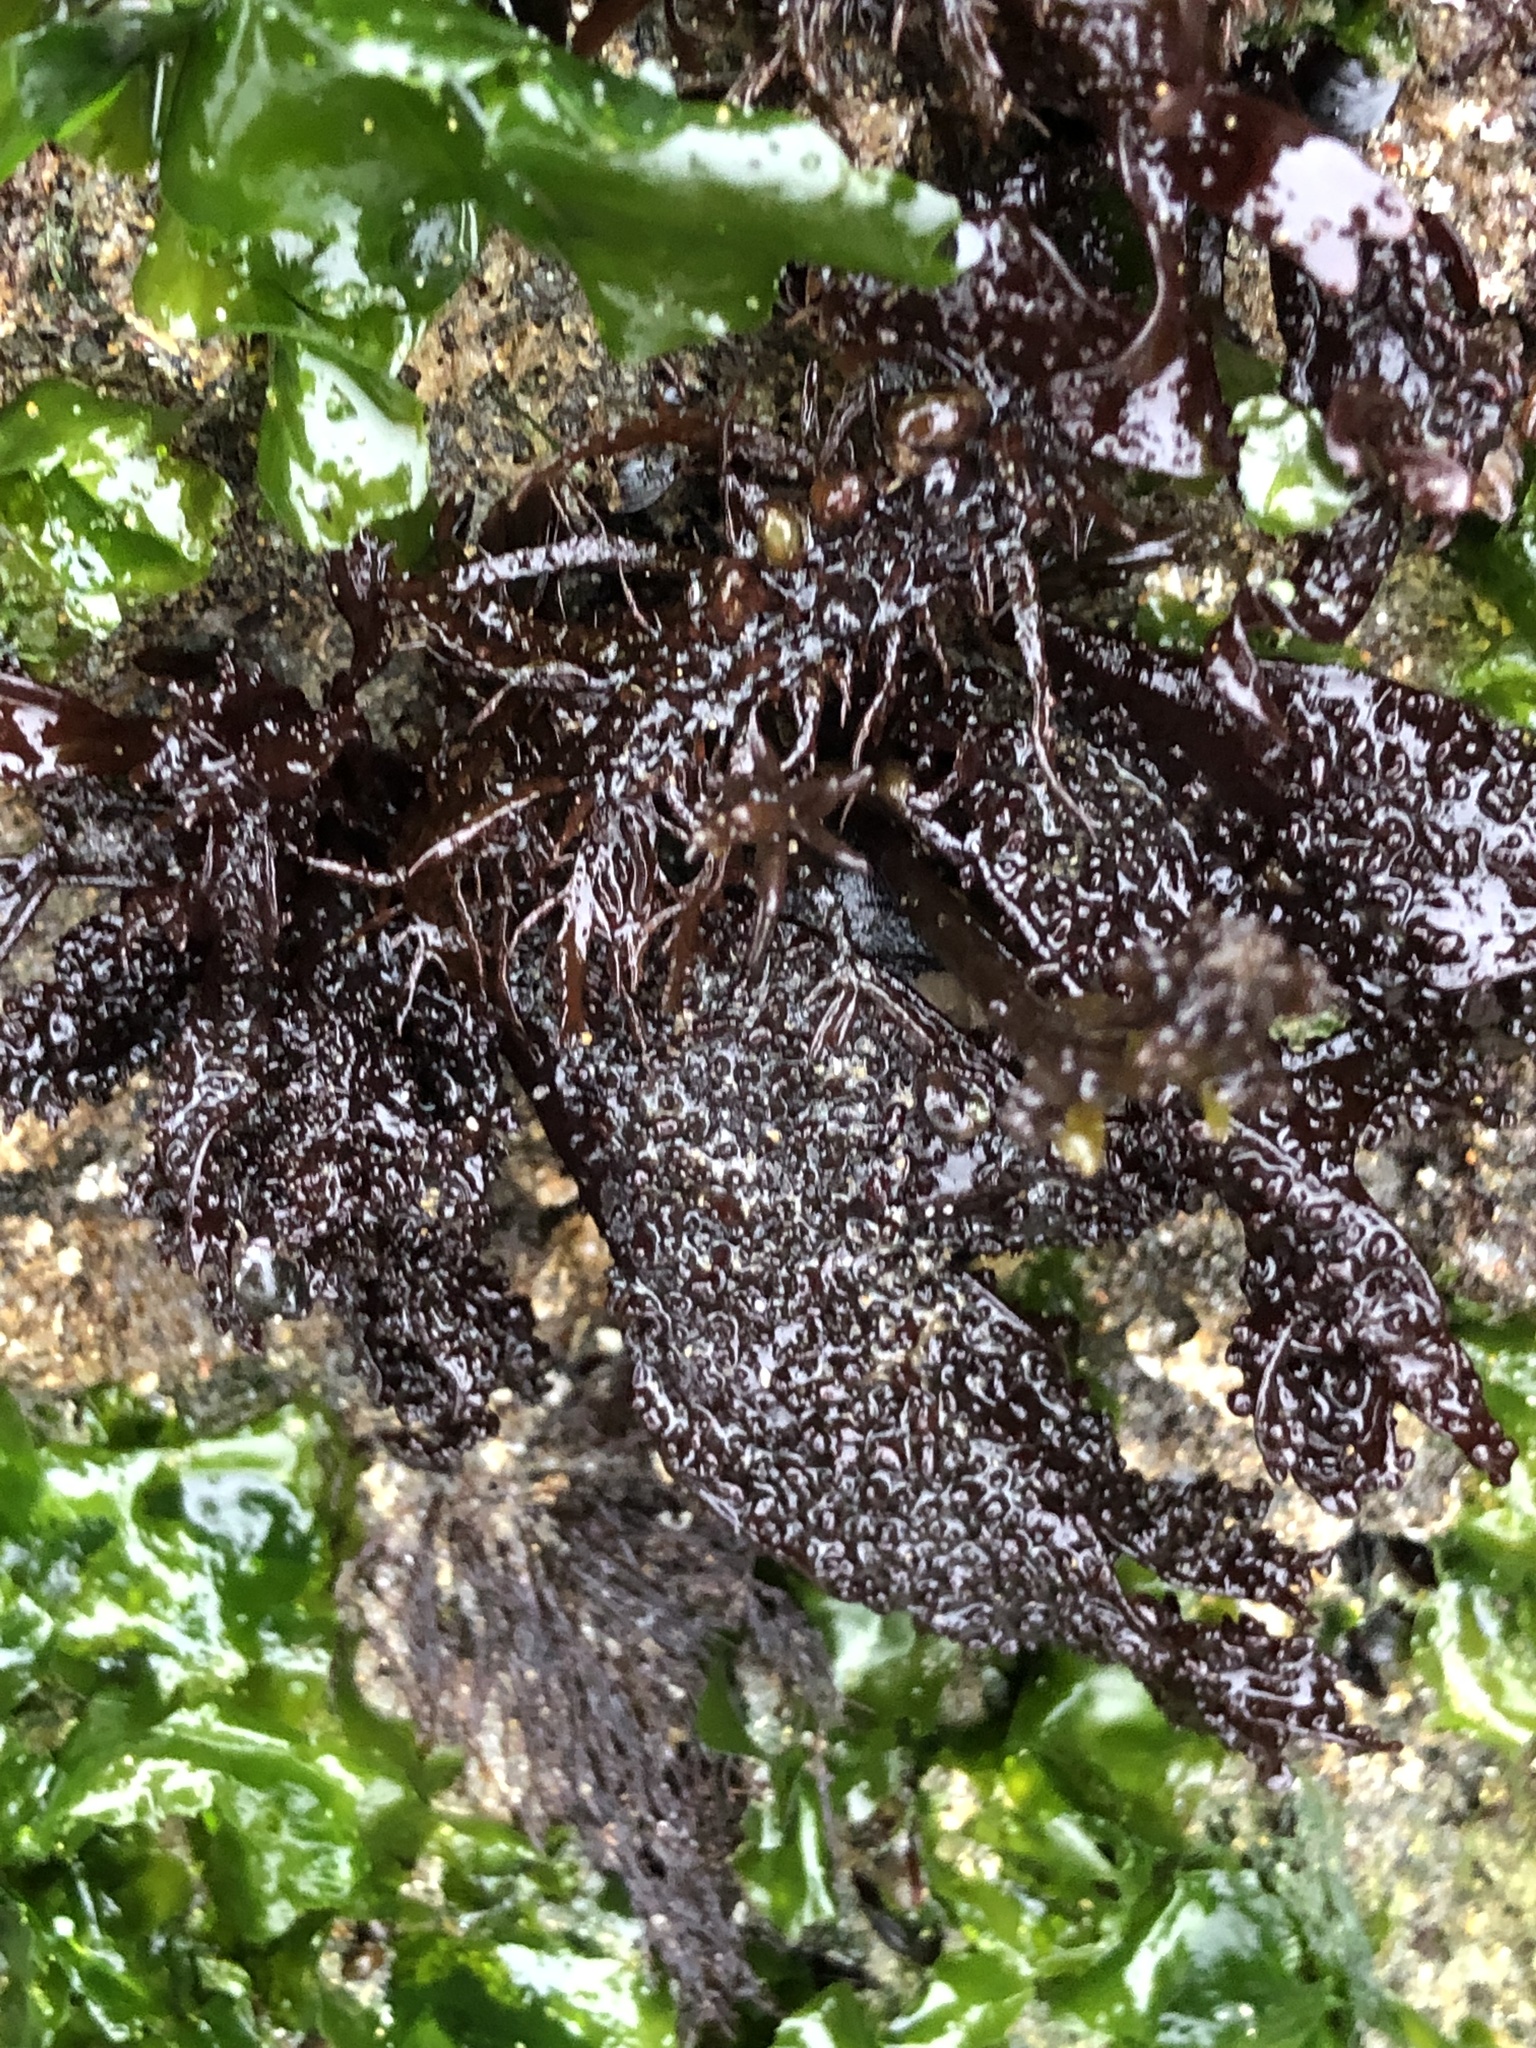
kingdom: Plantae
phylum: Rhodophyta
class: Florideophyceae
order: Gigartinales
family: Phyllophoraceae
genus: Mastocarpus
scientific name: Mastocarpus papillatus
